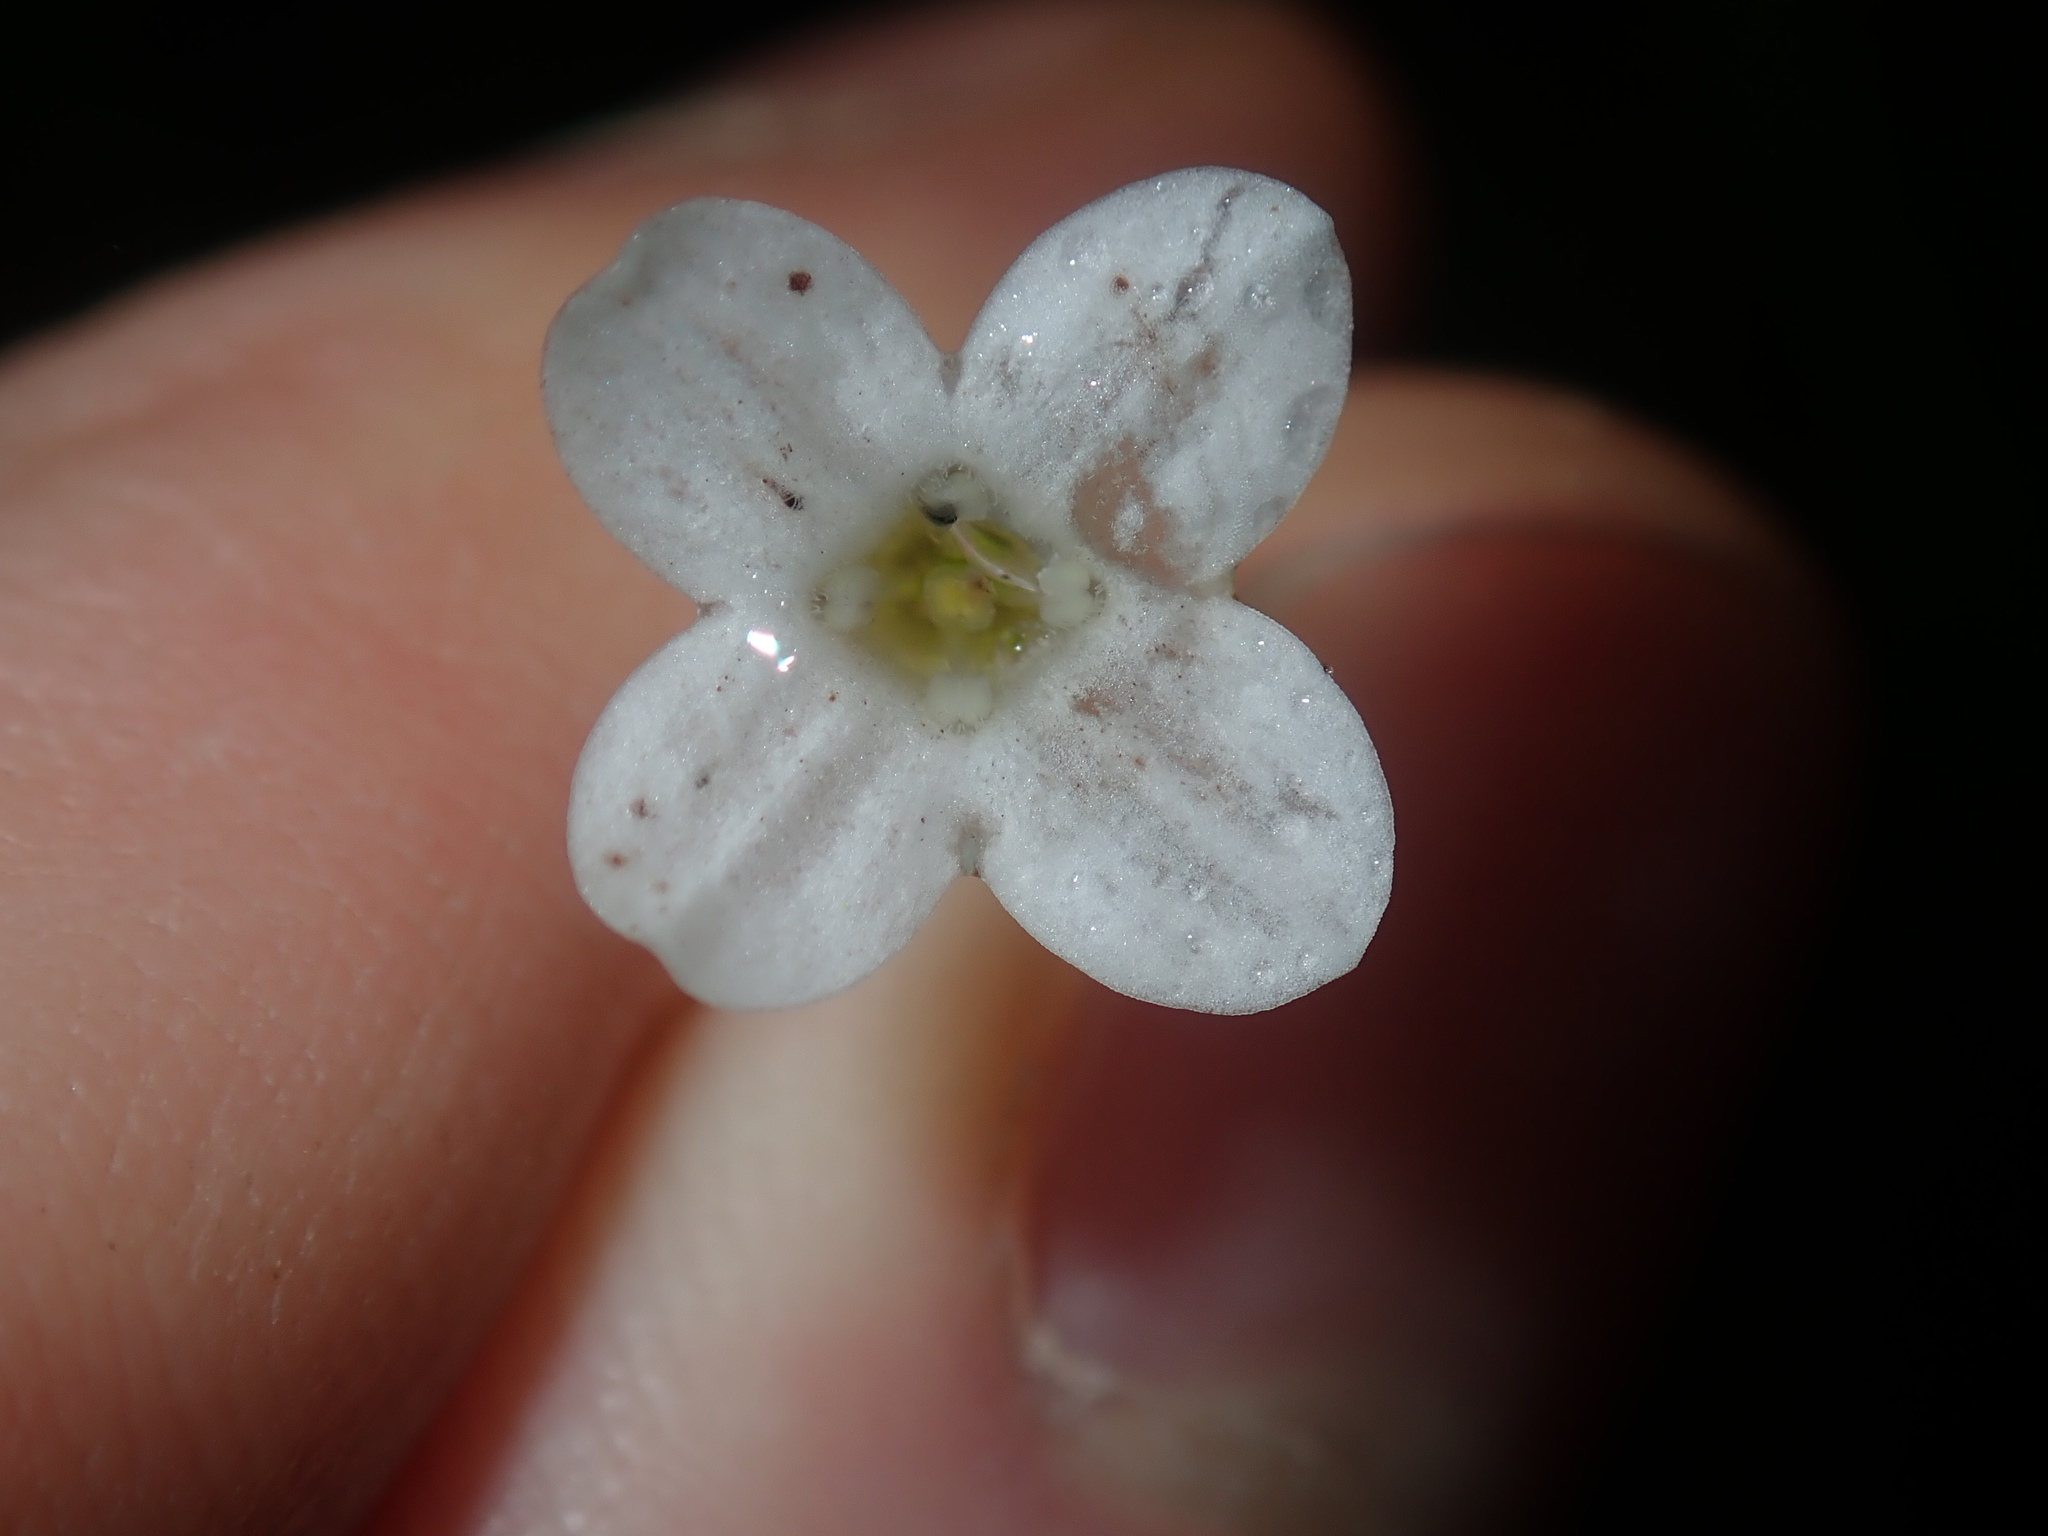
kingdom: Plantae
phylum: Tracheophyta
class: Magnoliopsida
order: Gentianales
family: Loganiaceae
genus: Mitrasacme
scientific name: Mitrasacme polymorpha
